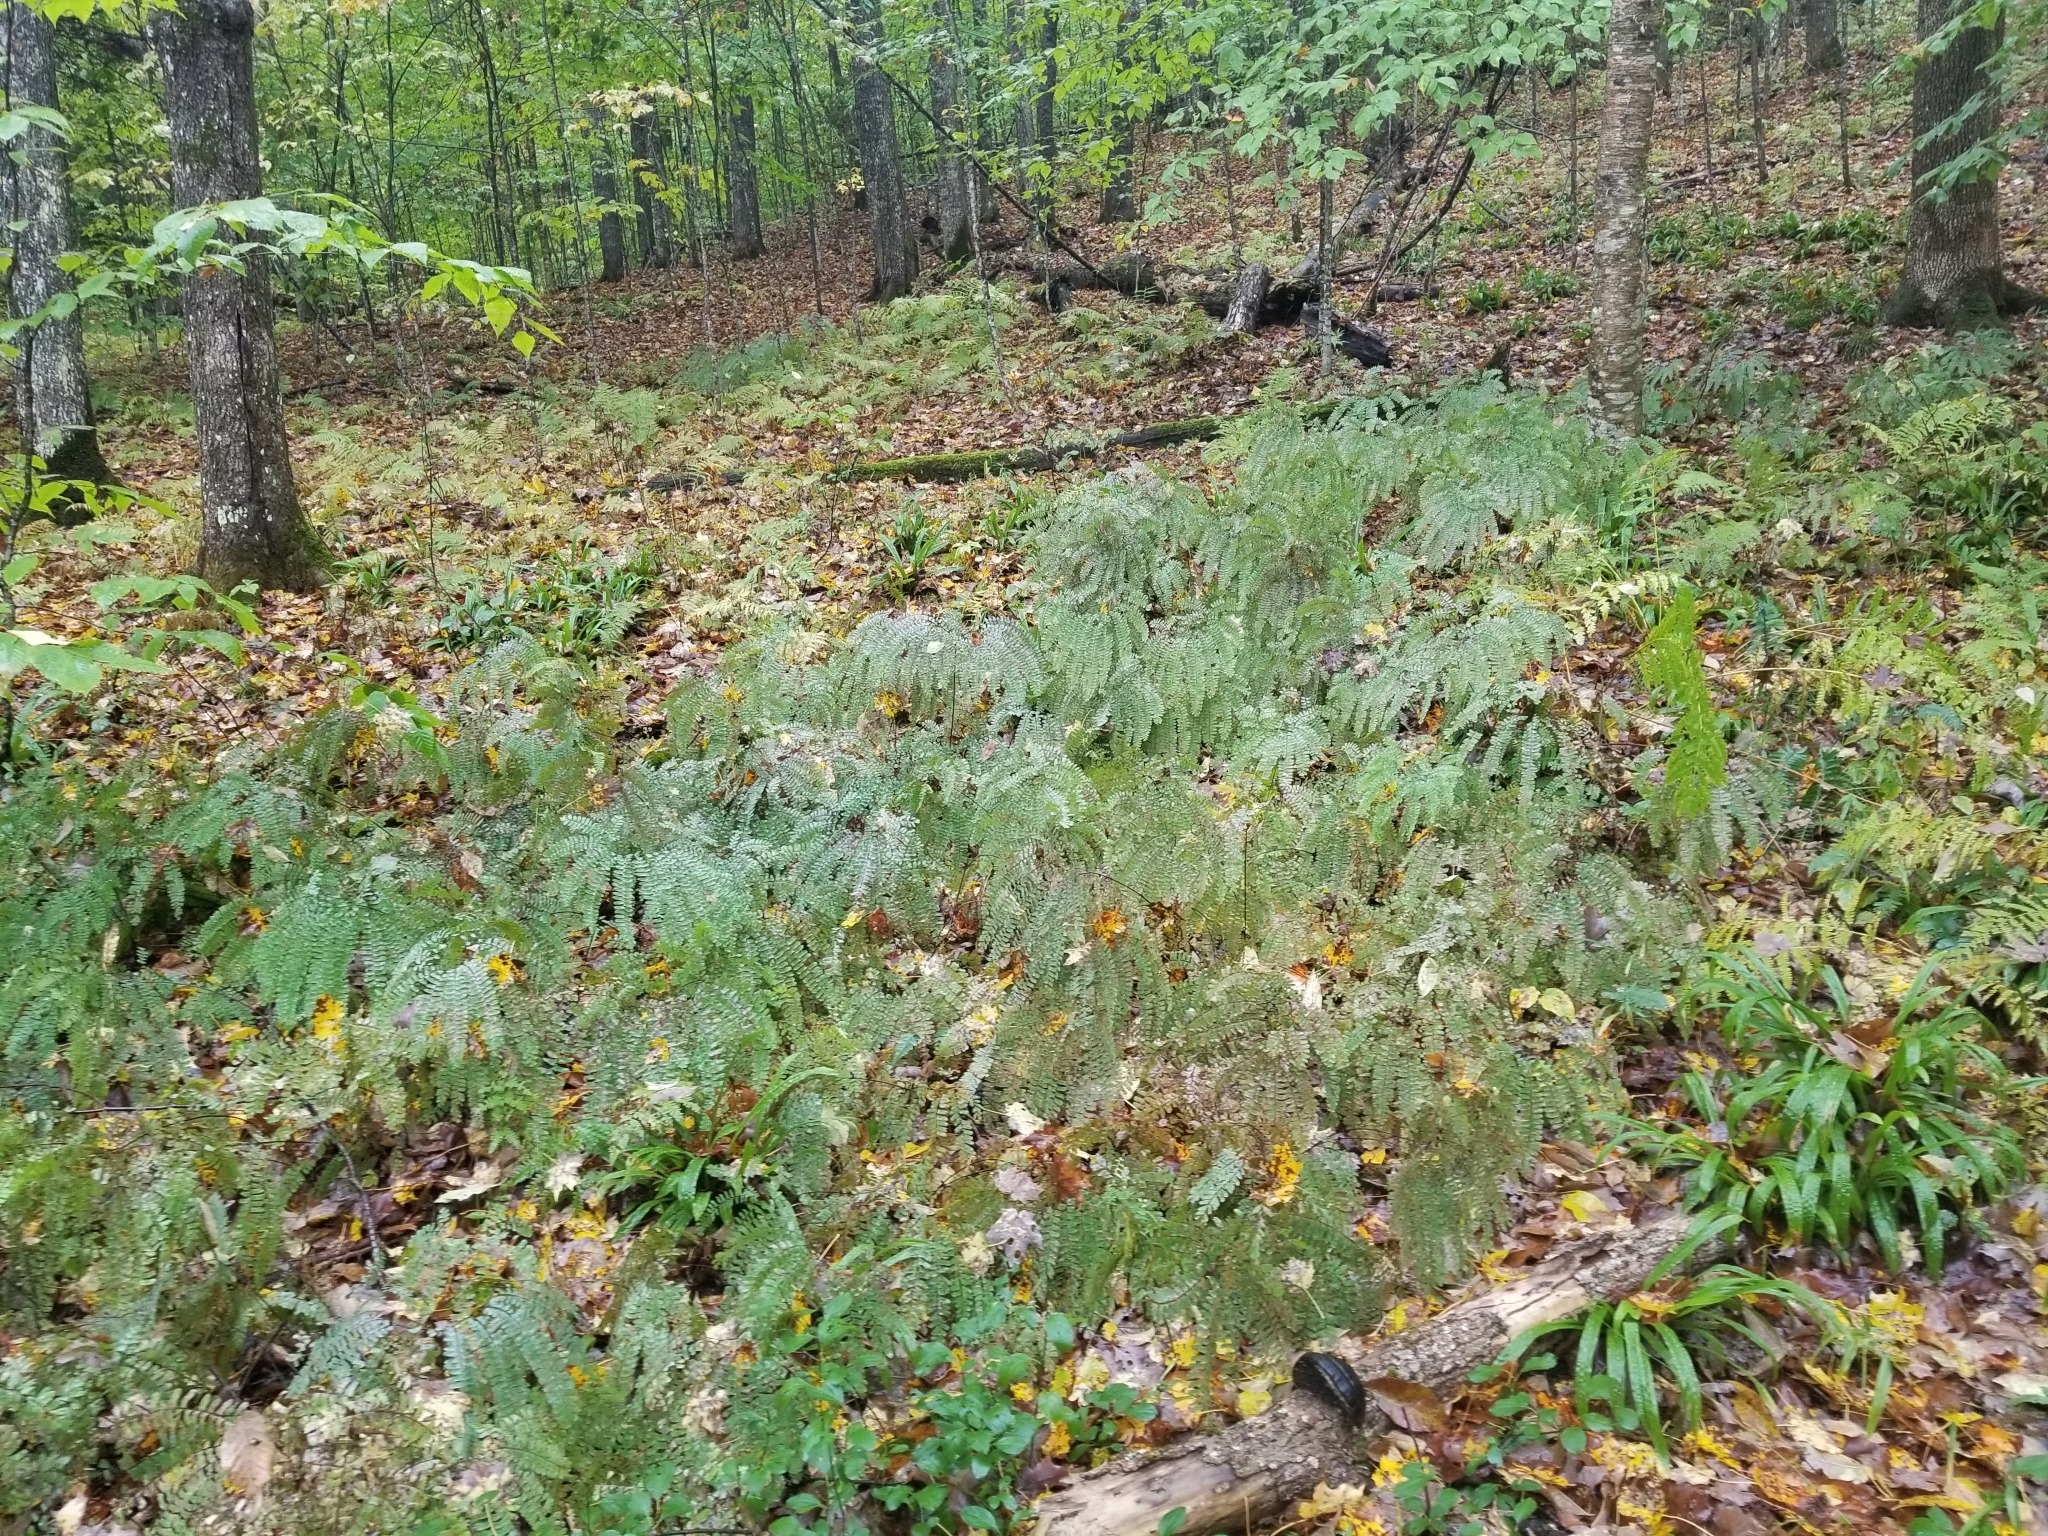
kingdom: Plantae
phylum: Tracheophyta
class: Polypodiopsida
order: Polypodiales
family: Pteridaceae
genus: Adiantum
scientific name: Adiantum pedatum
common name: Five-finger fern
